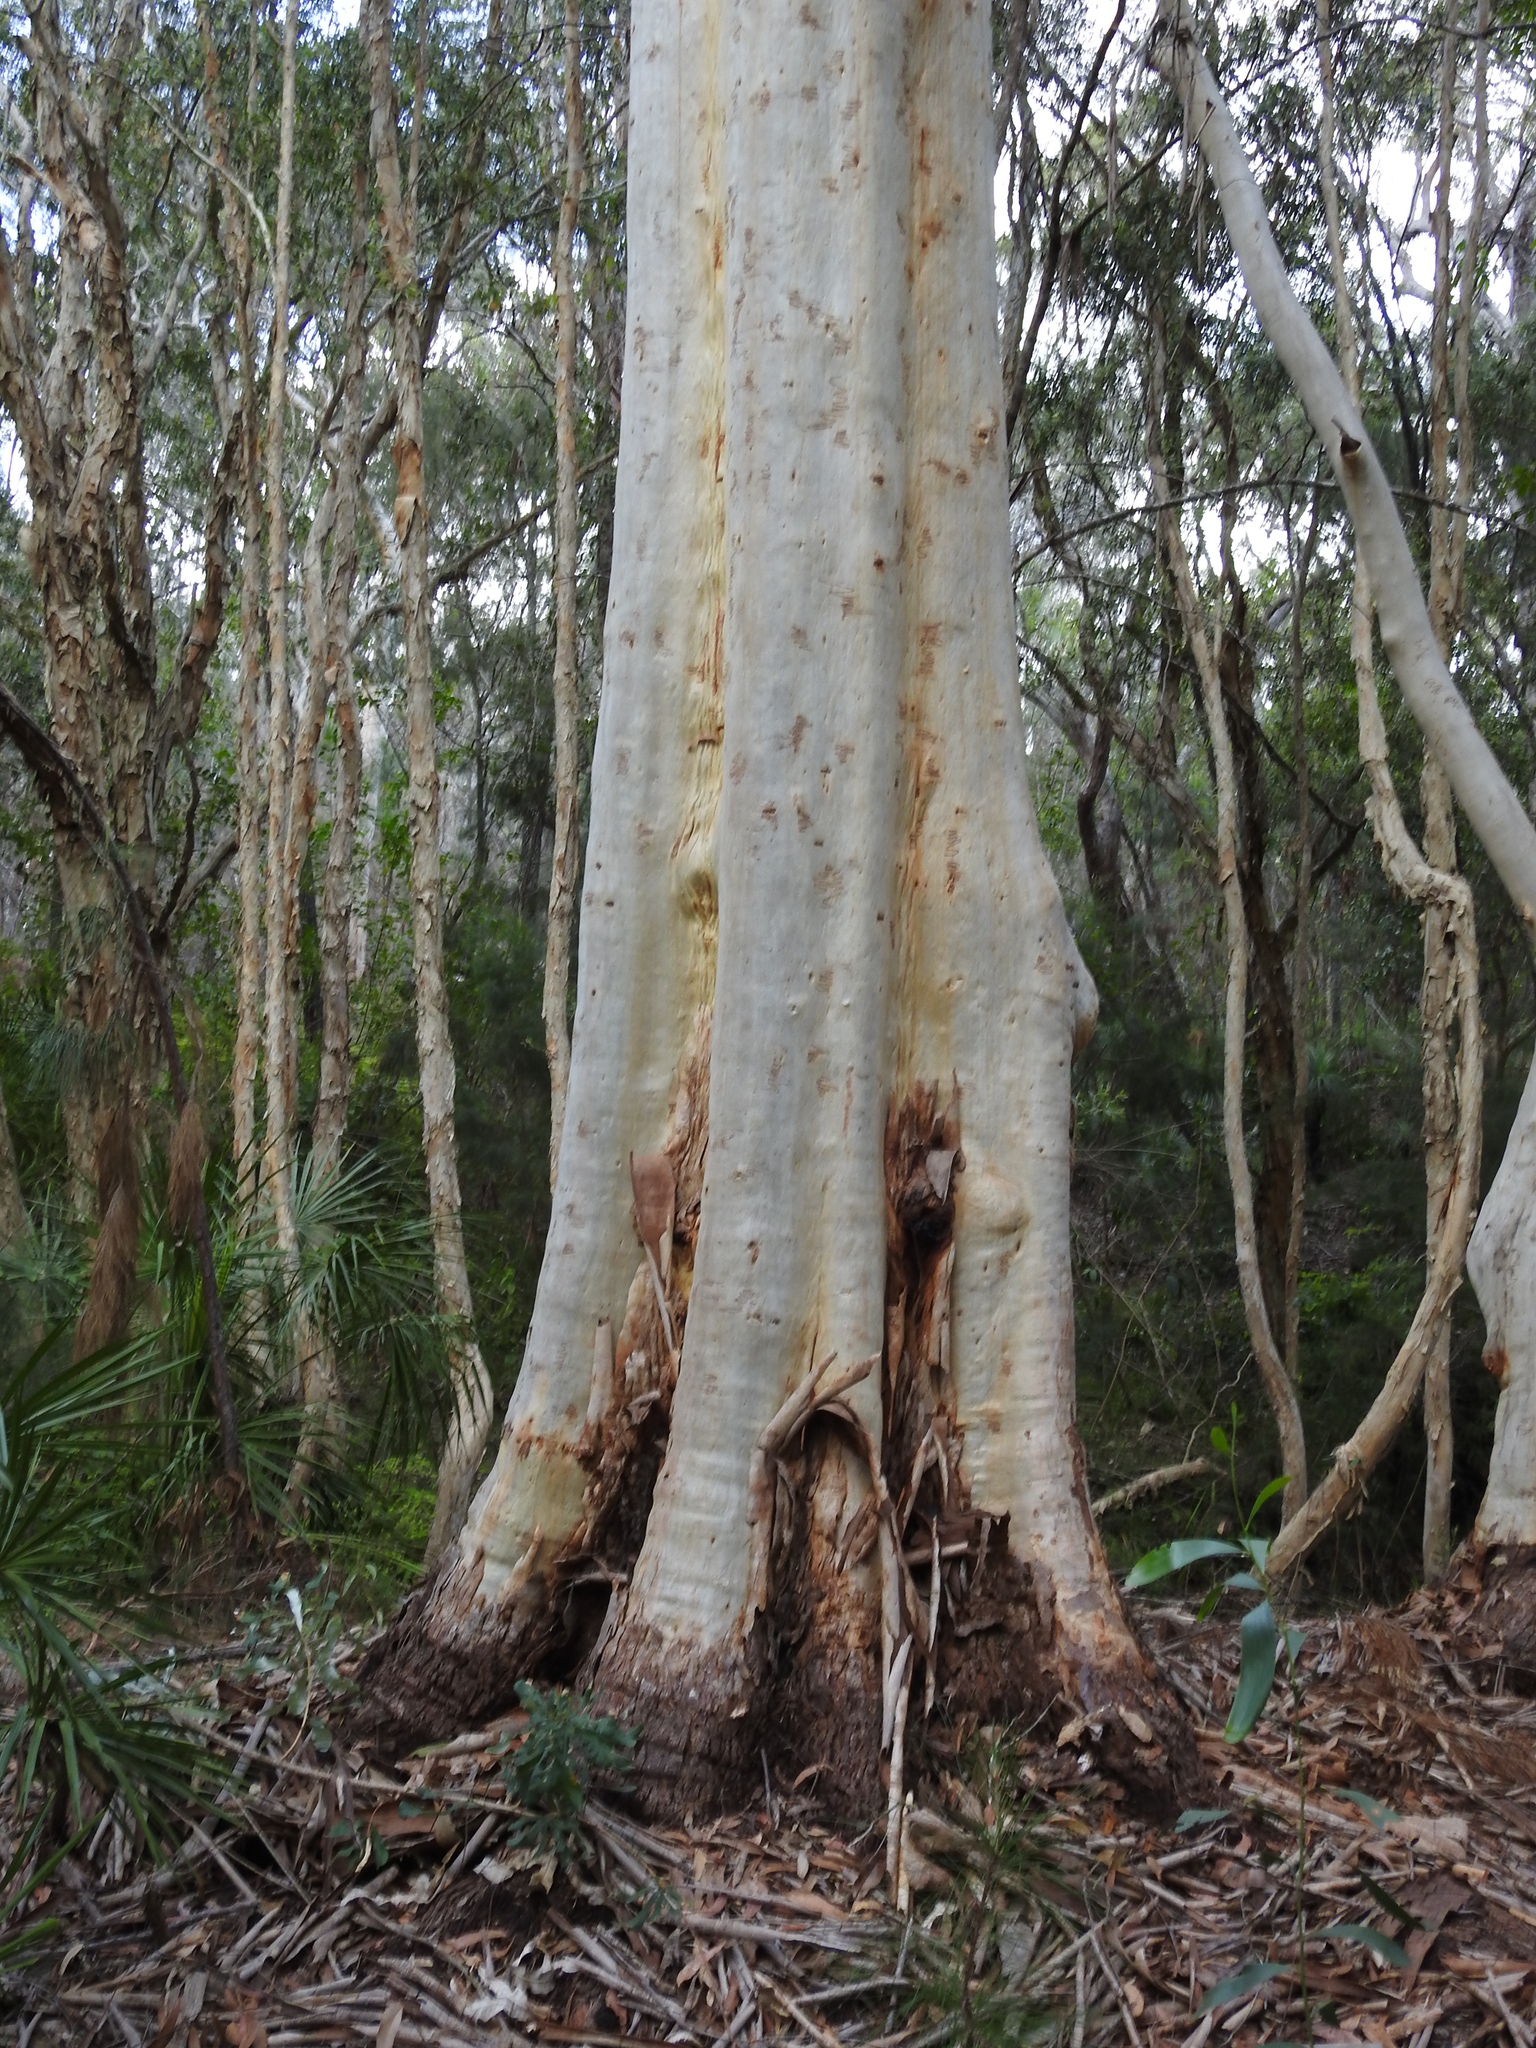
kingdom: Plantae
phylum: Tracheophyta
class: Magnoliopsida
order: Myrtales
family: Myrtaceae
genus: Eucalyptus
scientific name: Eucalyptus racemosa
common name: Scribbly gum
